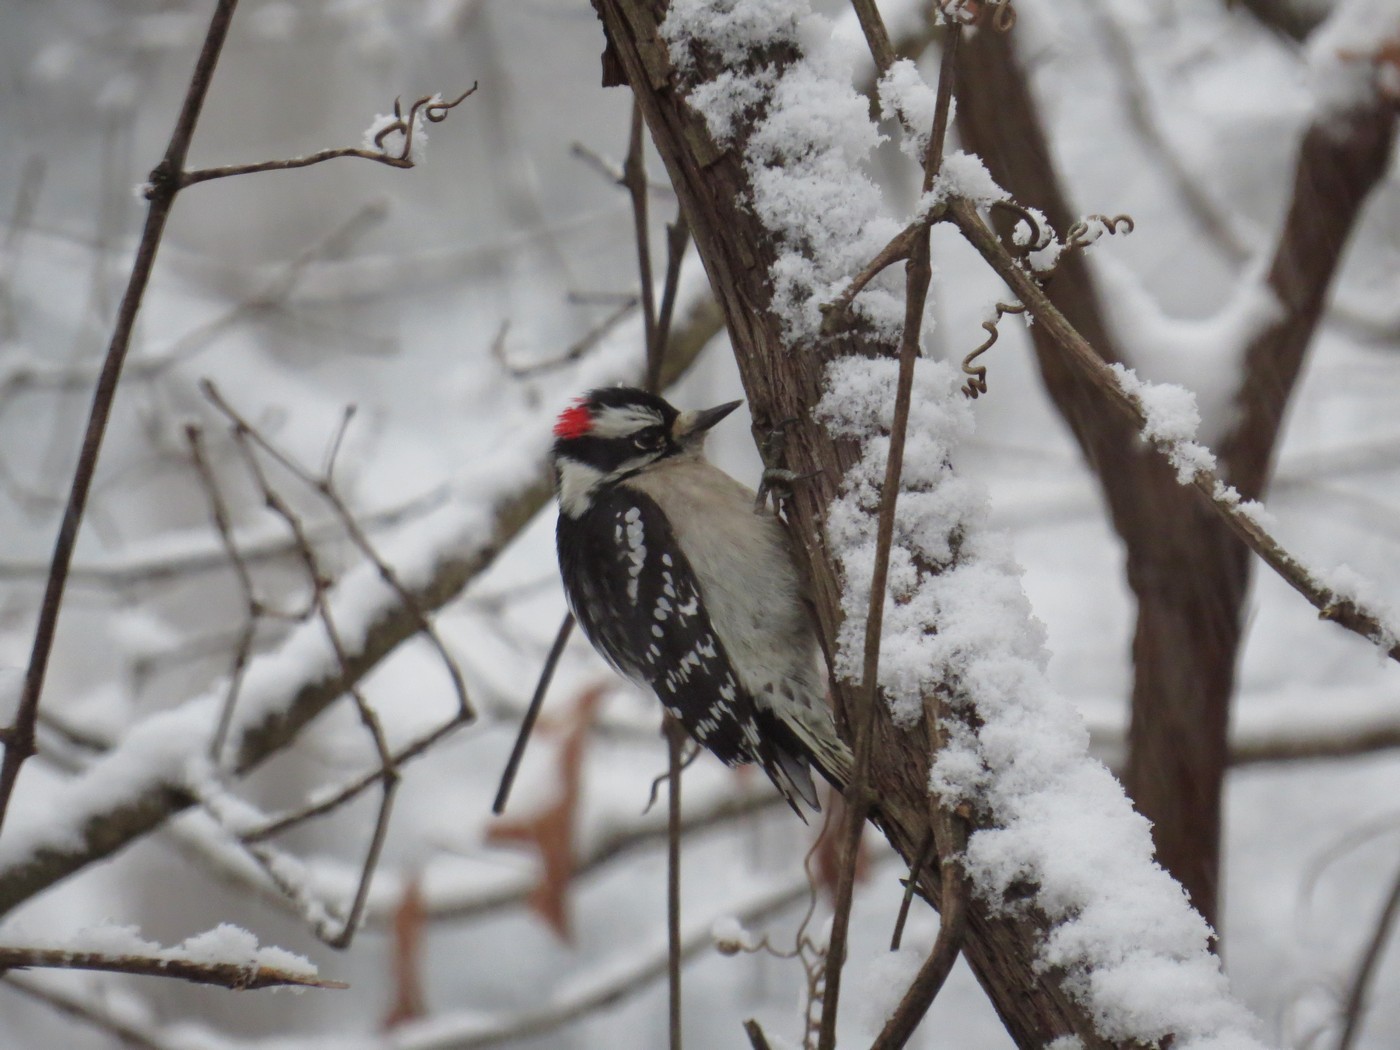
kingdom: Animalia
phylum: Chordata
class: Aves
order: Piciformes
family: Picidae
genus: Dryobates
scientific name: Dryobates pubescens
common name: Downy woodpecker
